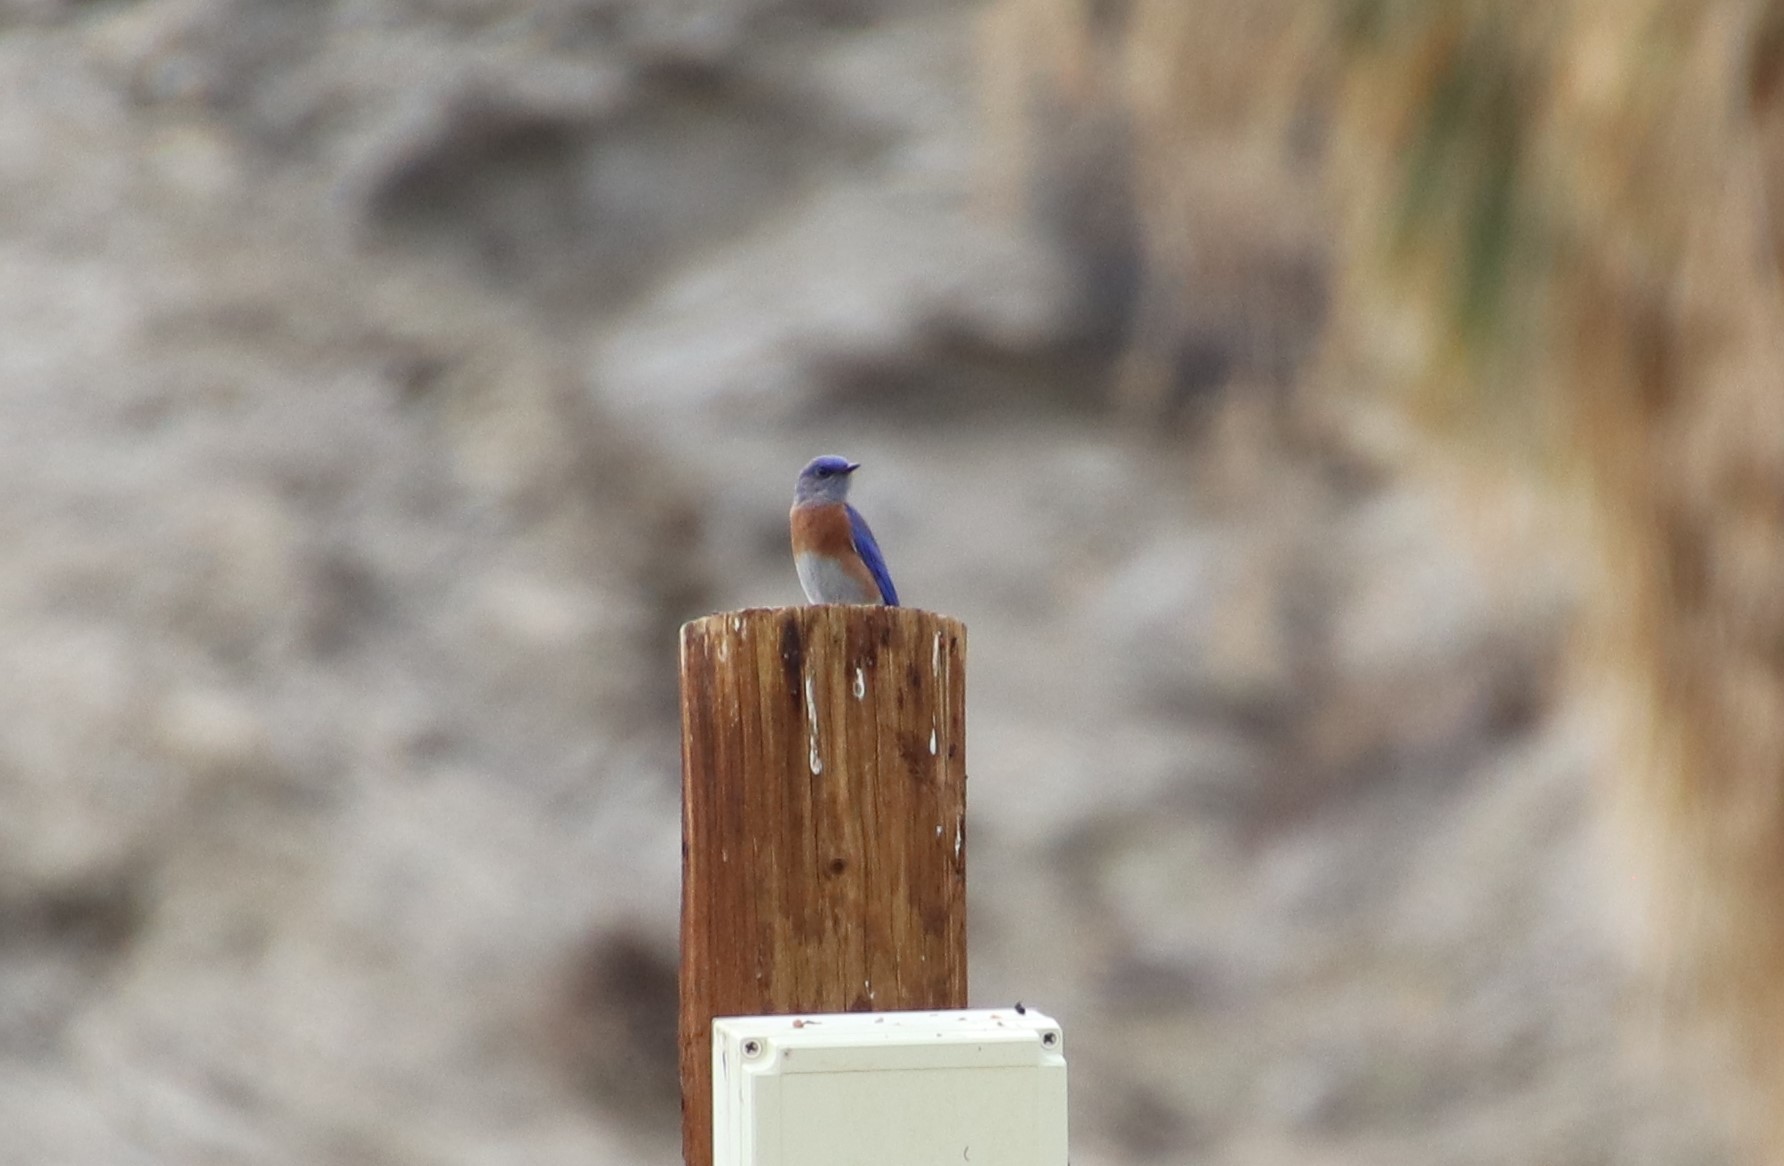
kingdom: Animalia
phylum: Chordata
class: Aves
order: Passeriformes
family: Turdidae
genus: Sialia
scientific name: Sialia mexicana
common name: Western bluebird
